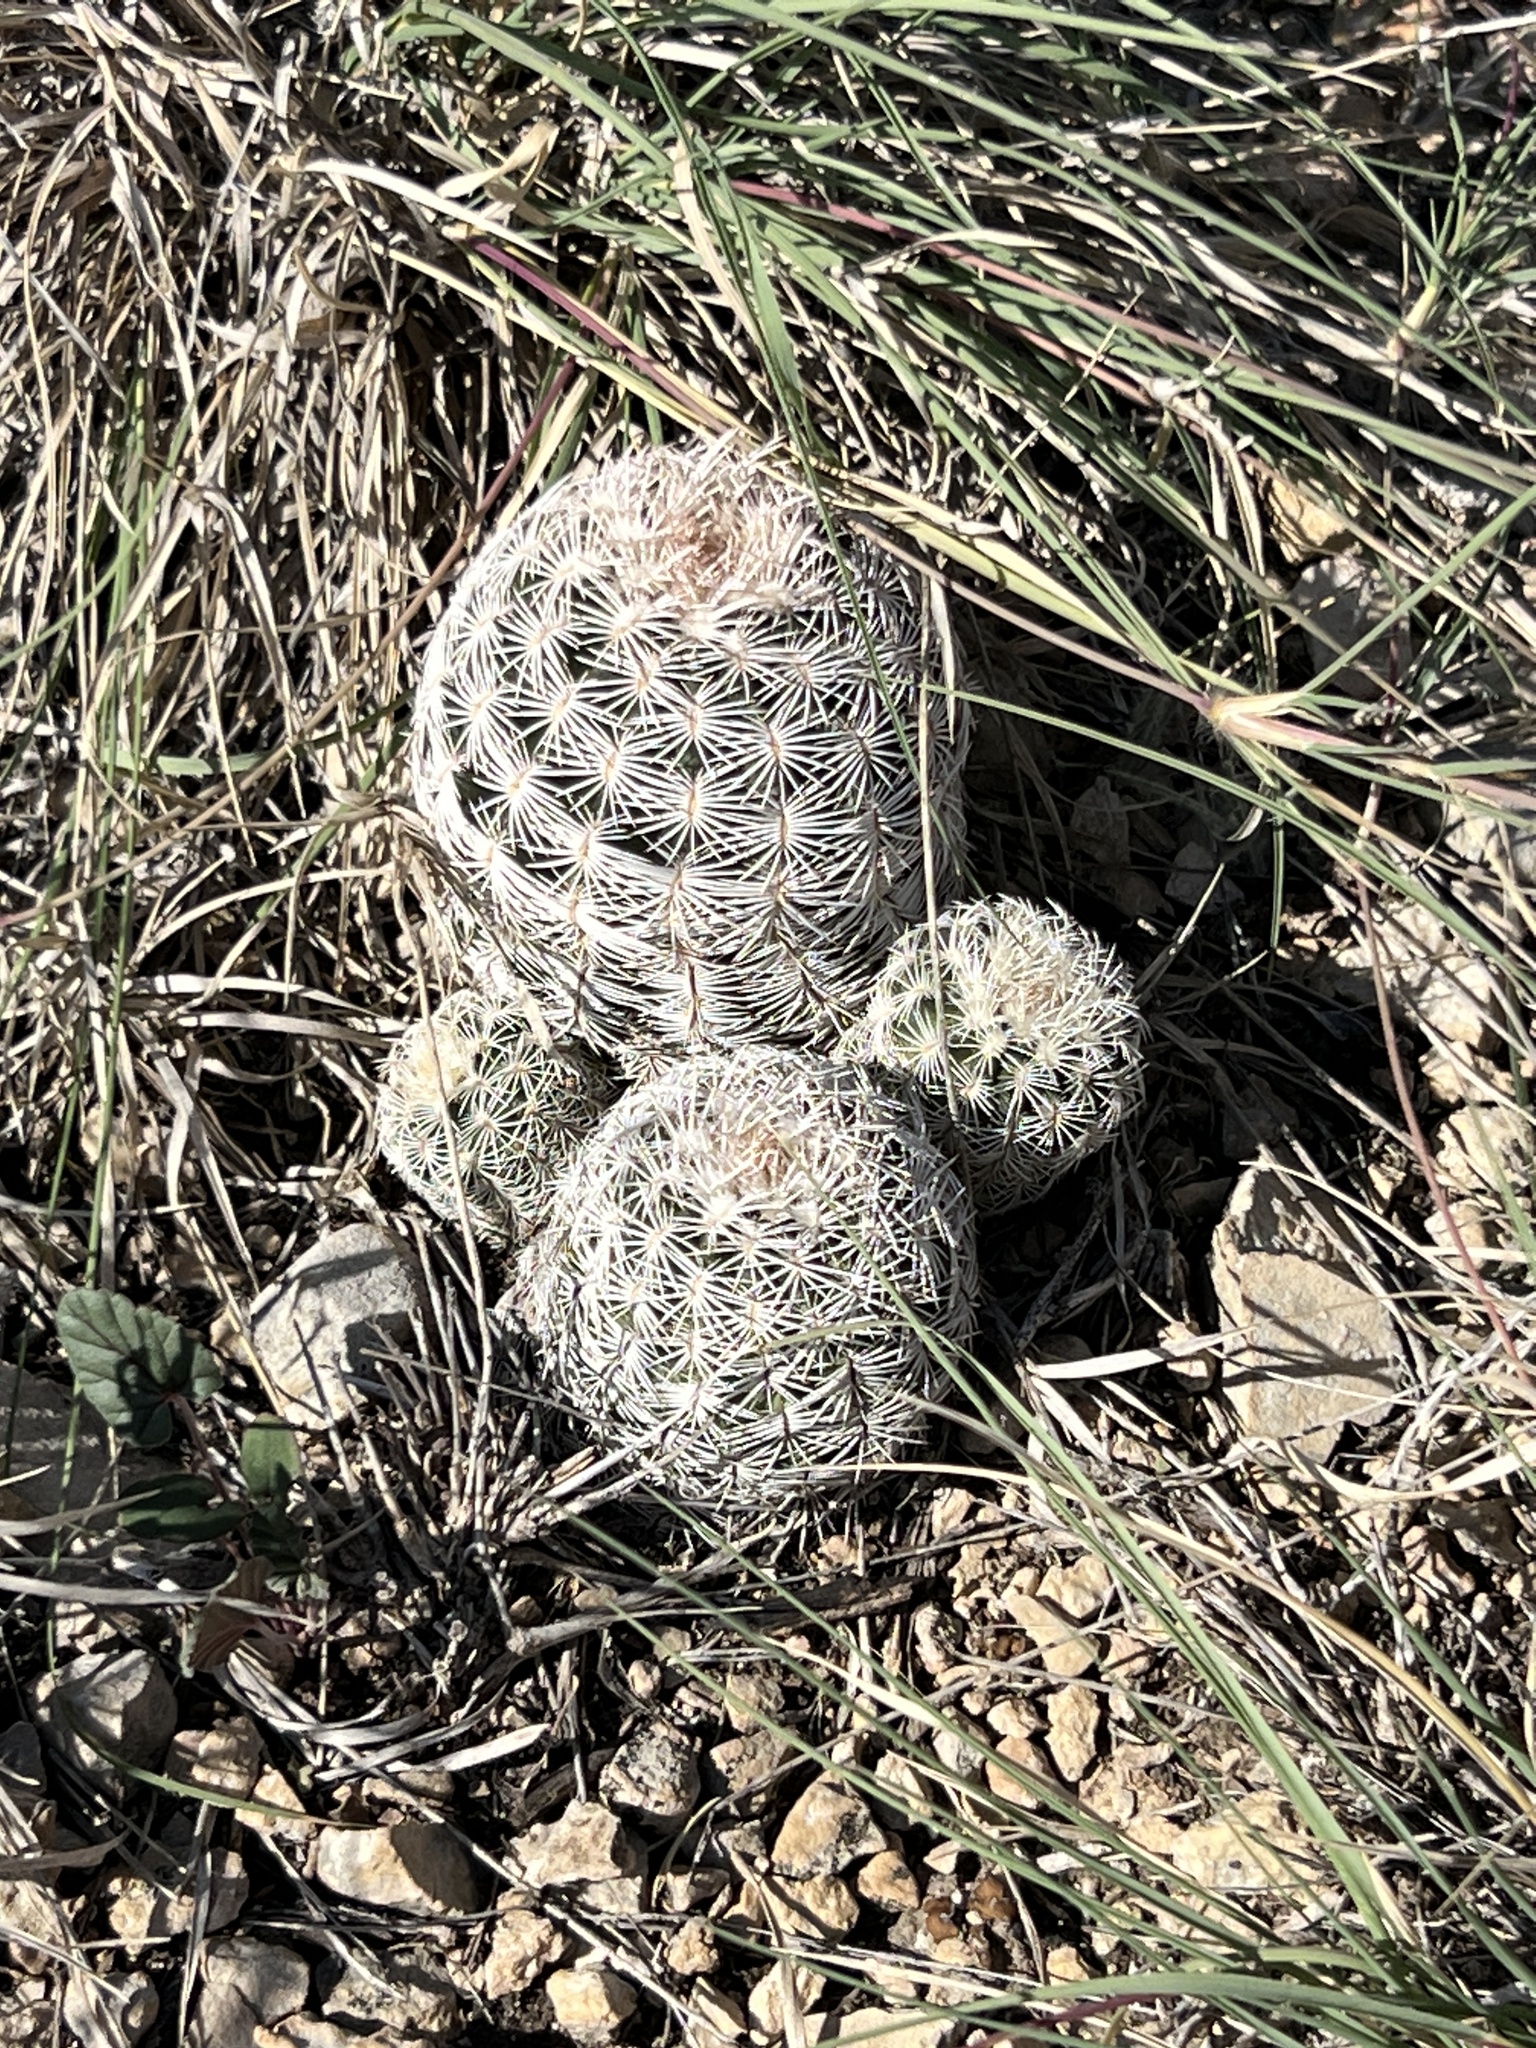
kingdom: Plantae
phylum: Tracheophyta
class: Magnoliopsida
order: Caryophyllales
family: Cactaceae
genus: Echinocereus
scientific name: Echinocereus reichenbachii
